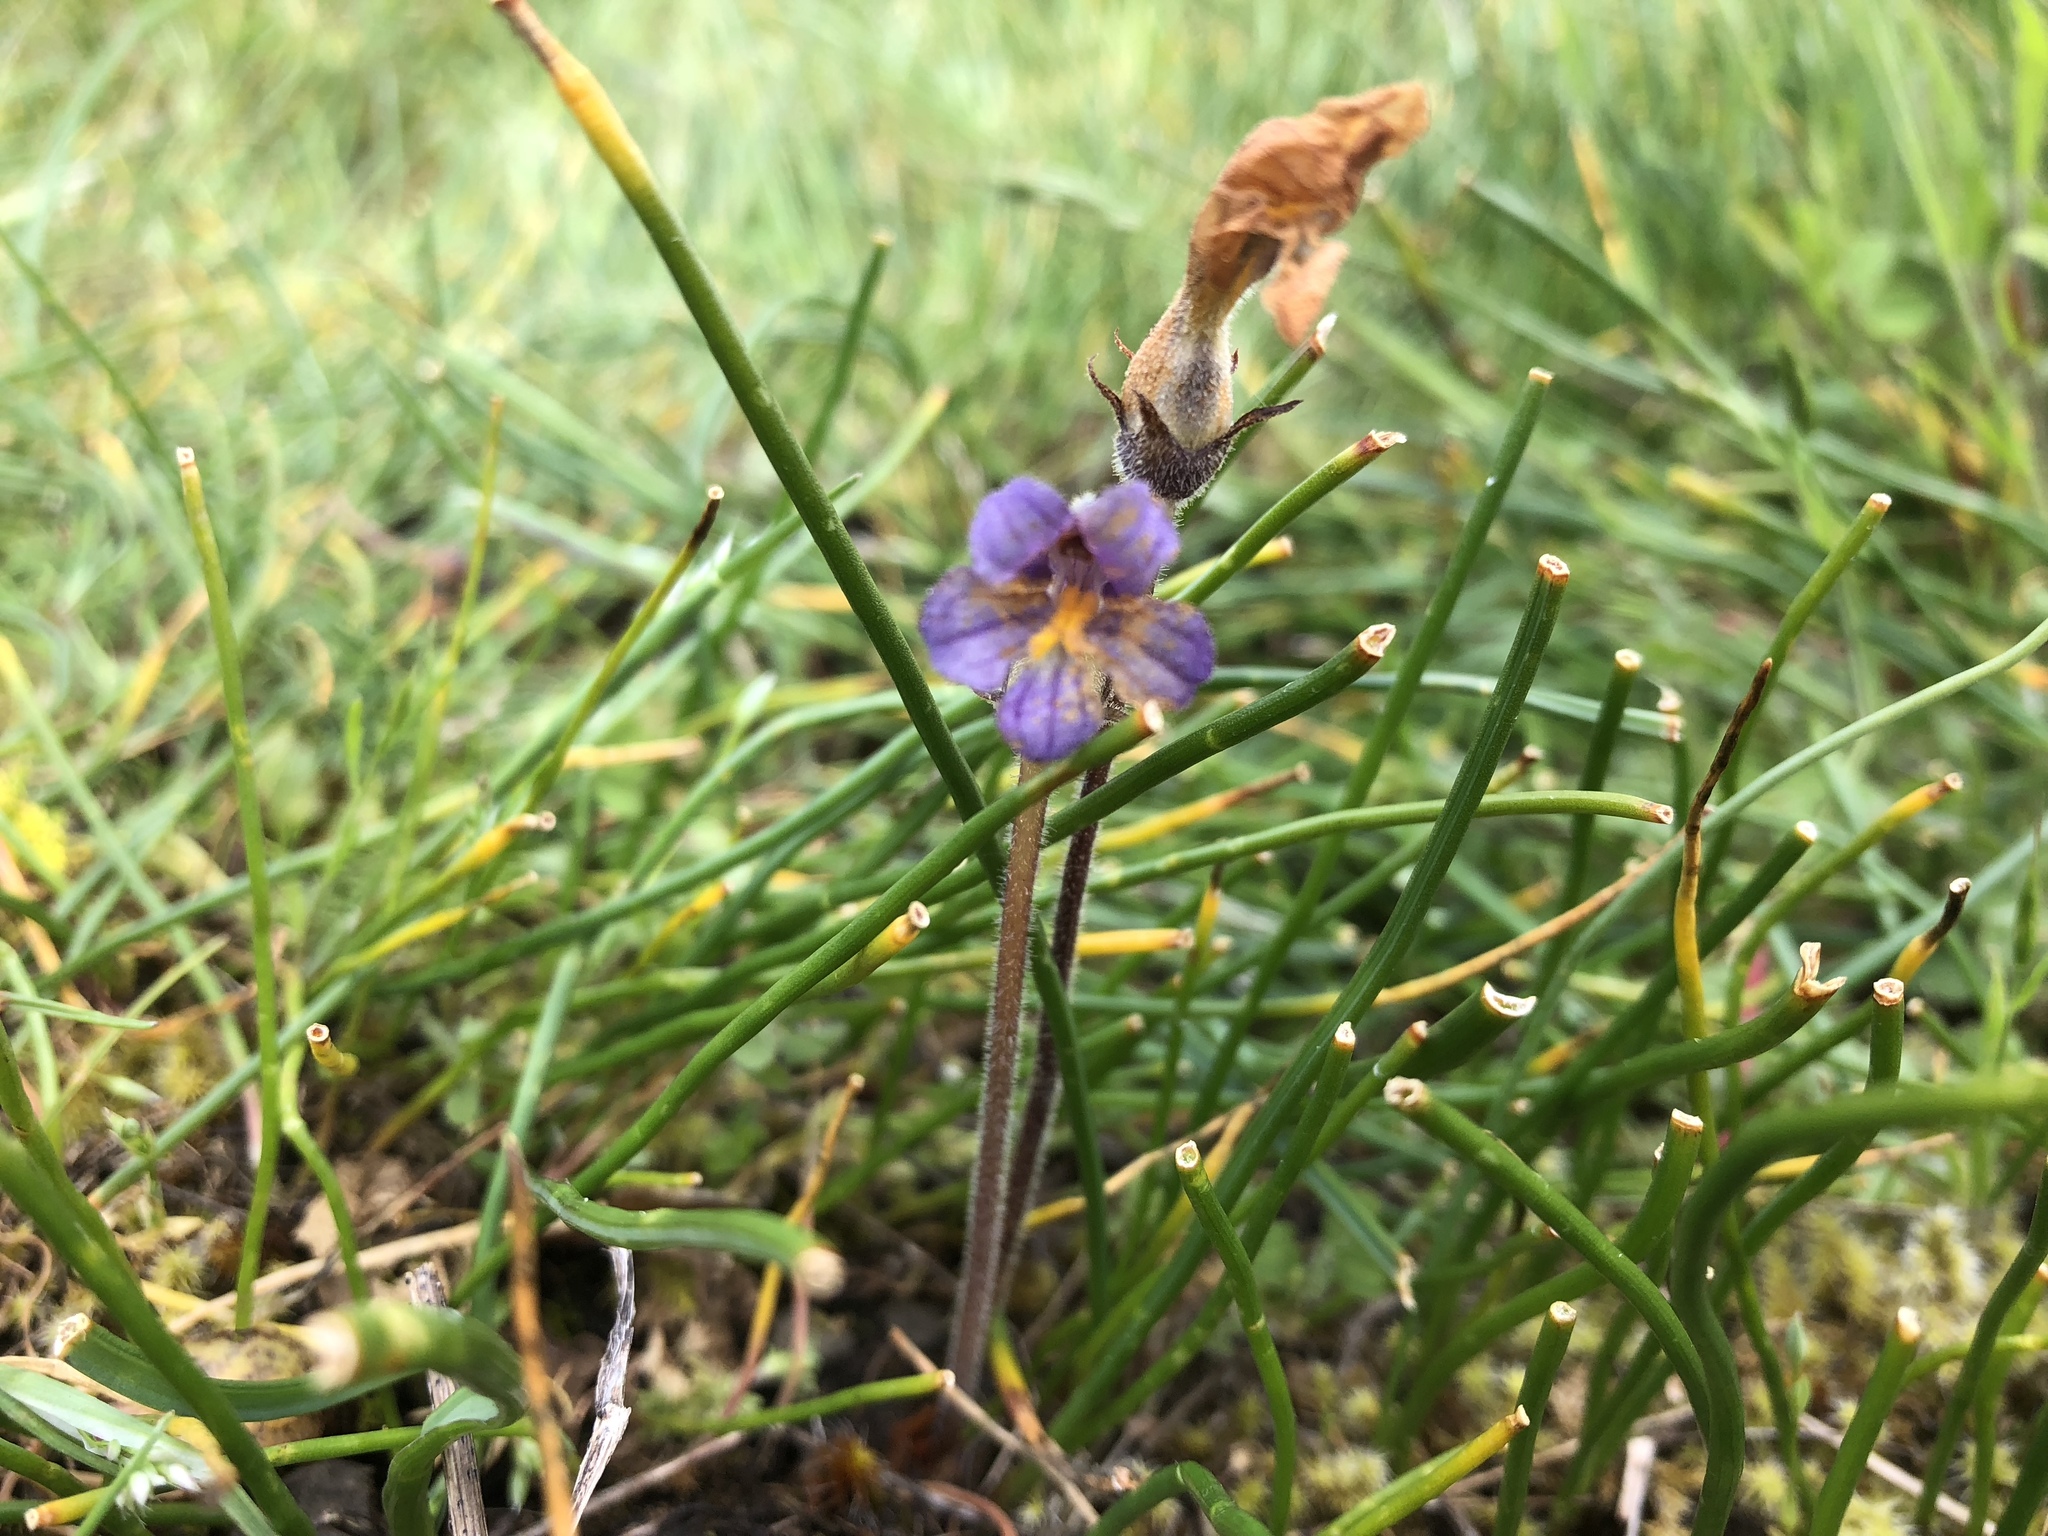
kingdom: Plantae
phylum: Tracheophyta
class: Magnoliopsida
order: Lamiales
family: Orobanchaceae
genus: Aphyllon
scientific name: Aphyllon uniflorum
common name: One-flowered broomrape
